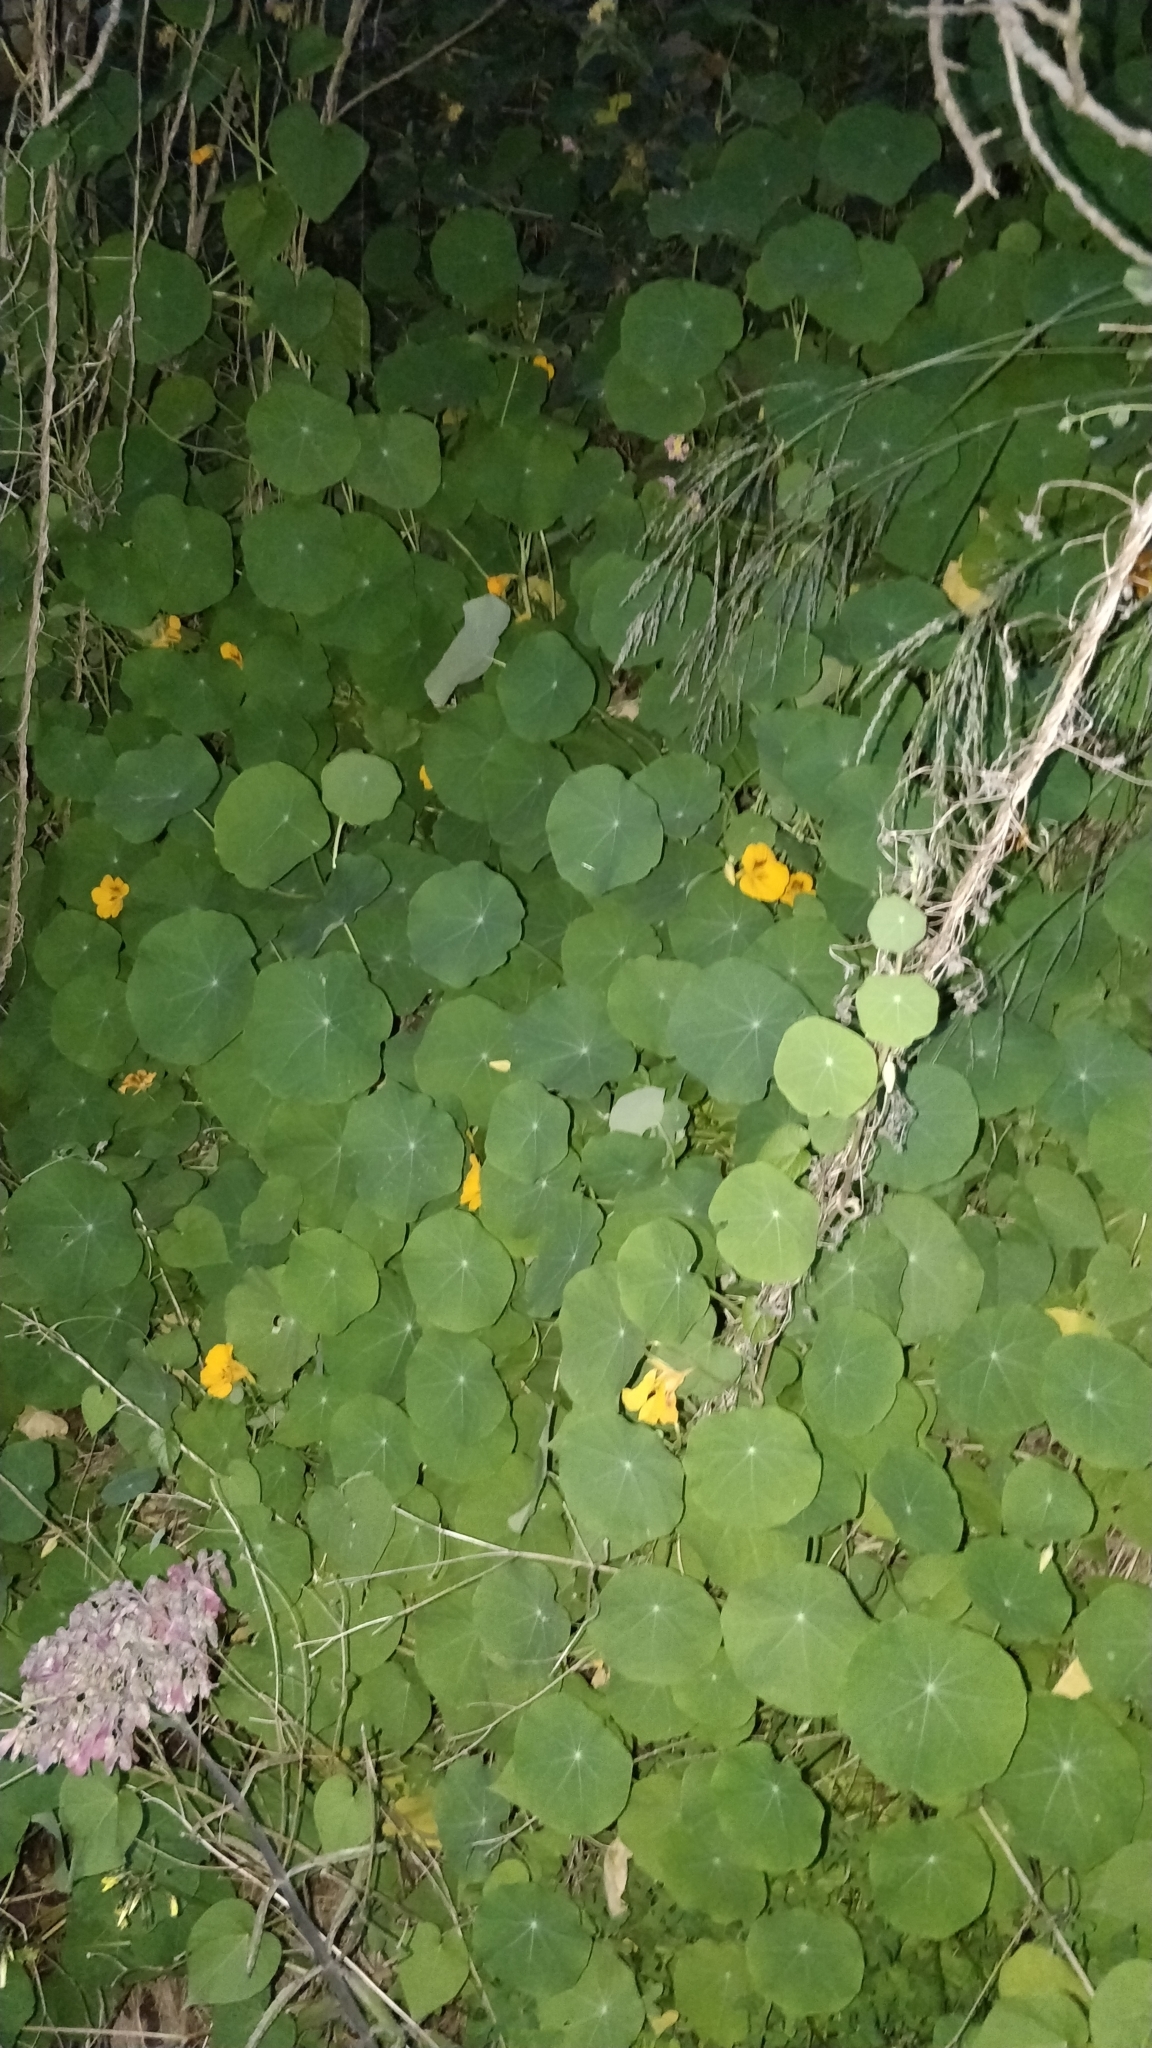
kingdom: Plantae
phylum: Tracheophyta
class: Magnoliopsida
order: Brassicales
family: Tropaeolaceae
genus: Tropaeolum
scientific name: Tropaeolum majus
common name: Nasturtium
